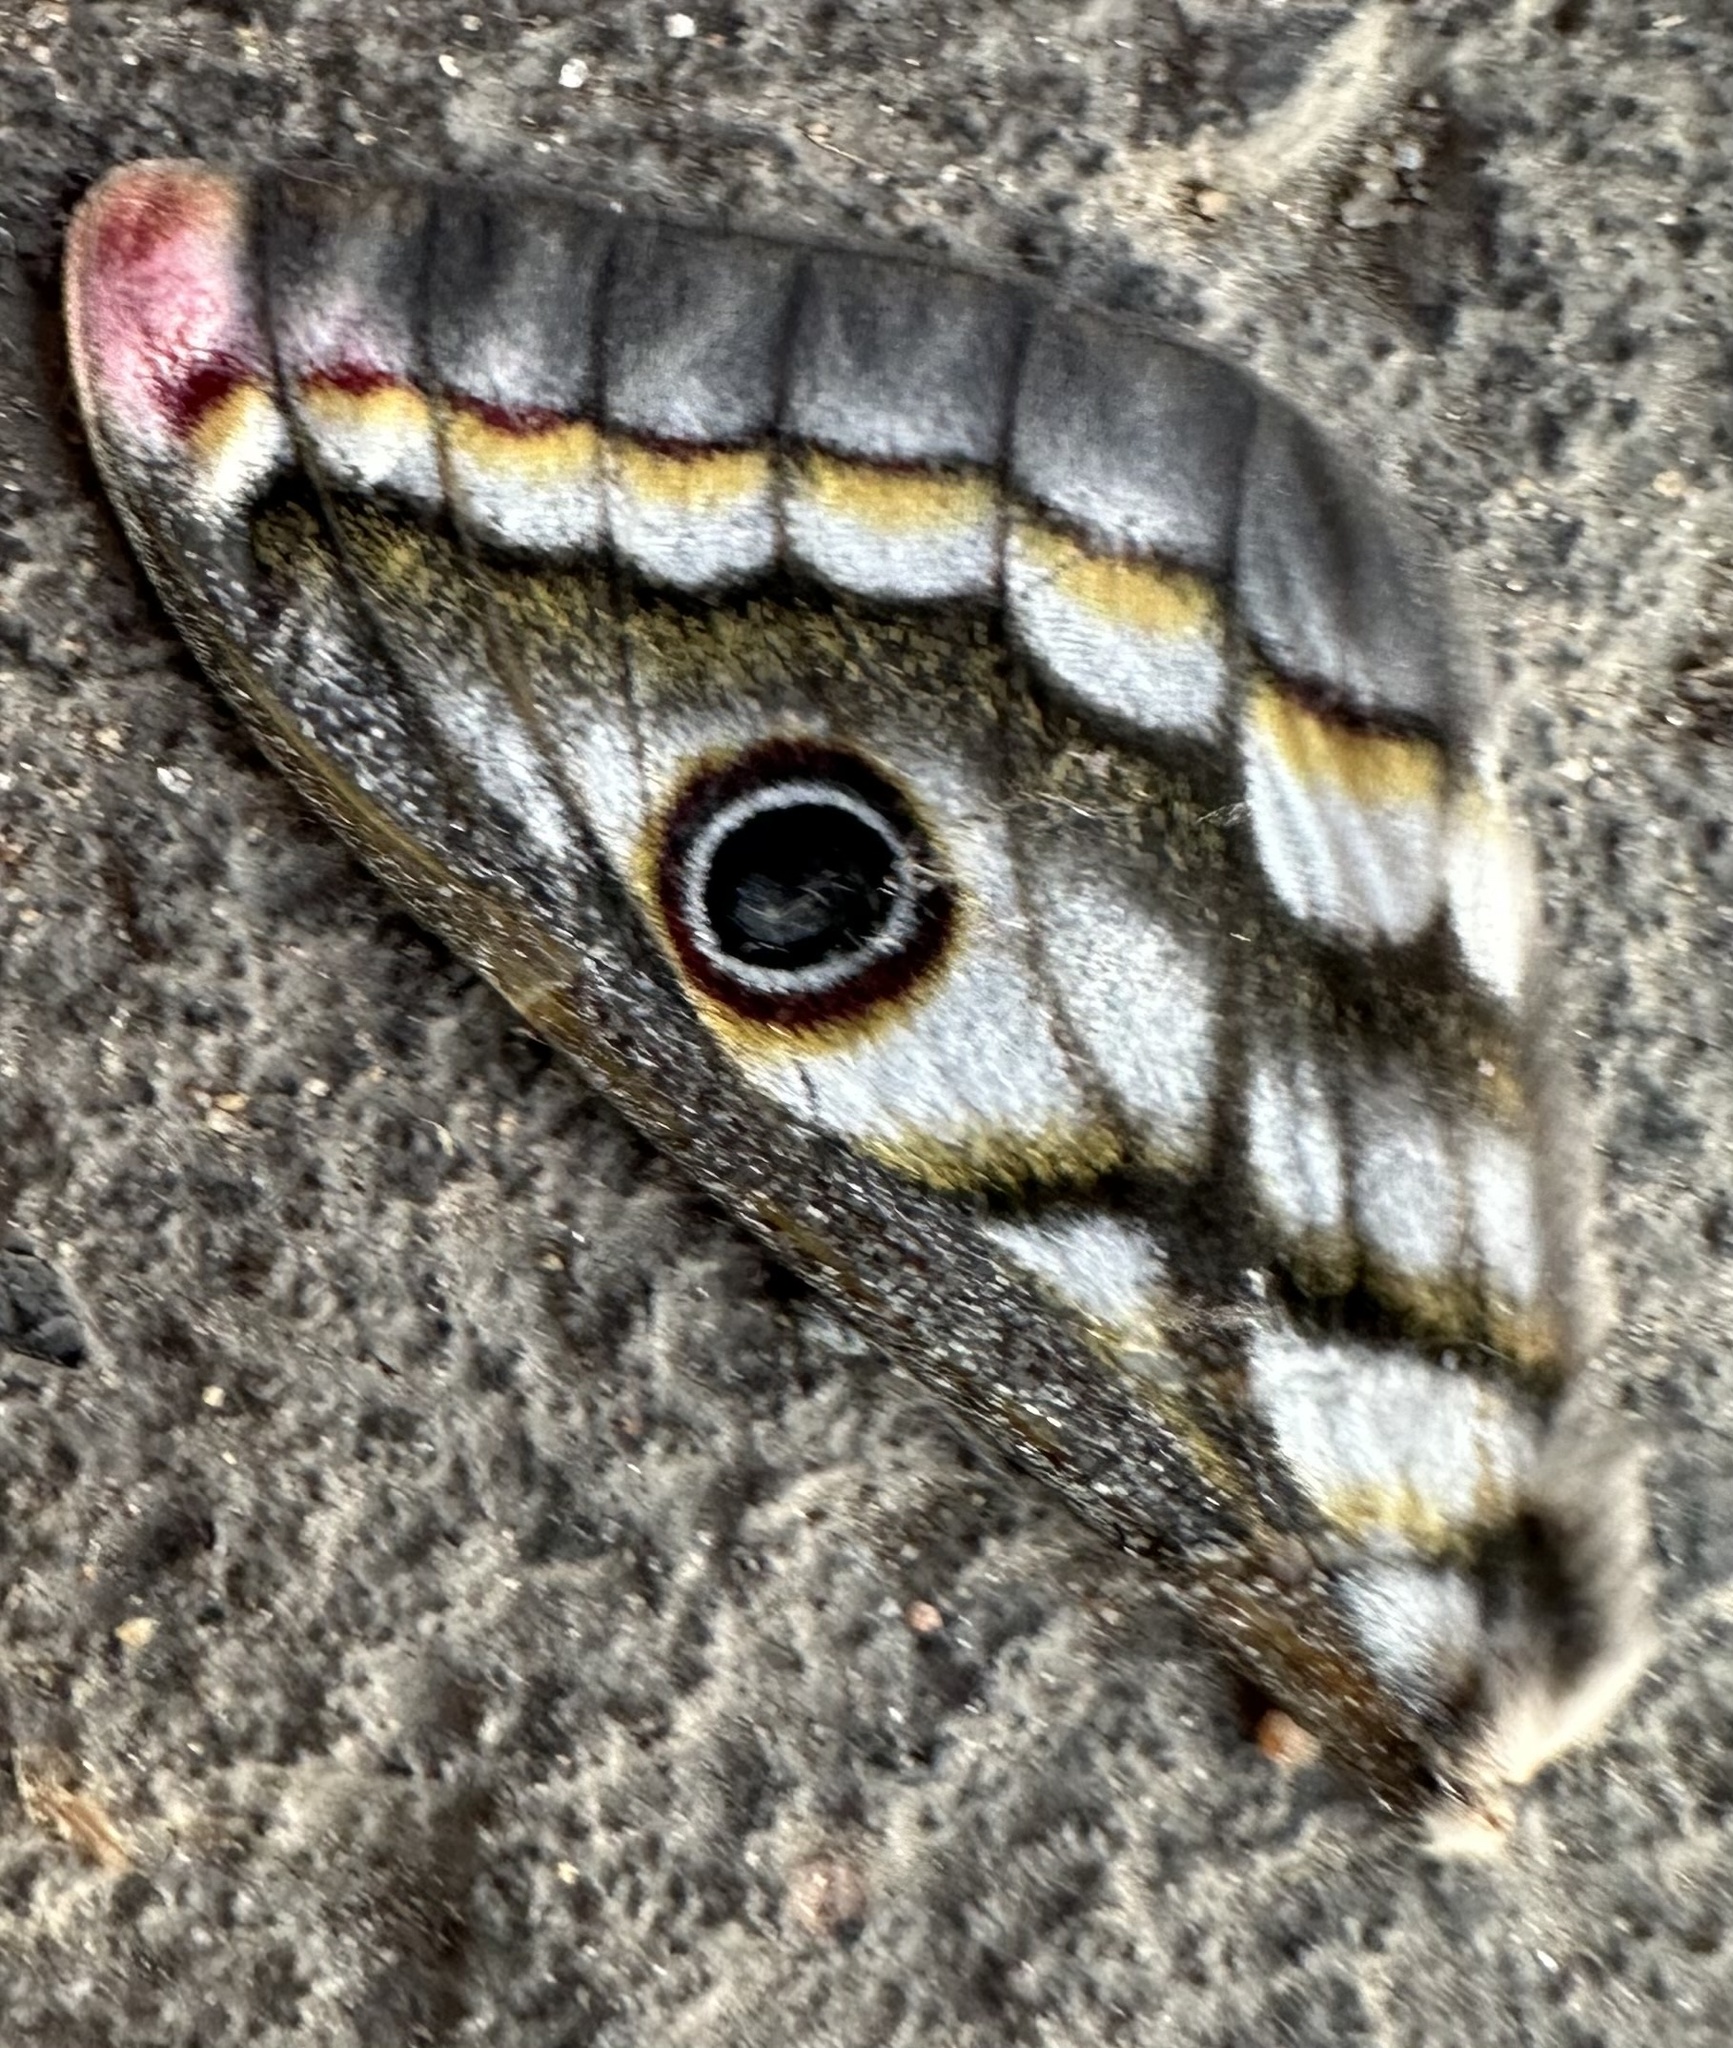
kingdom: Animalia
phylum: Arthropoda
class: Insecta
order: Lepidoptera
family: Saturniidae
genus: Heniocha
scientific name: Heniocha bioculata
